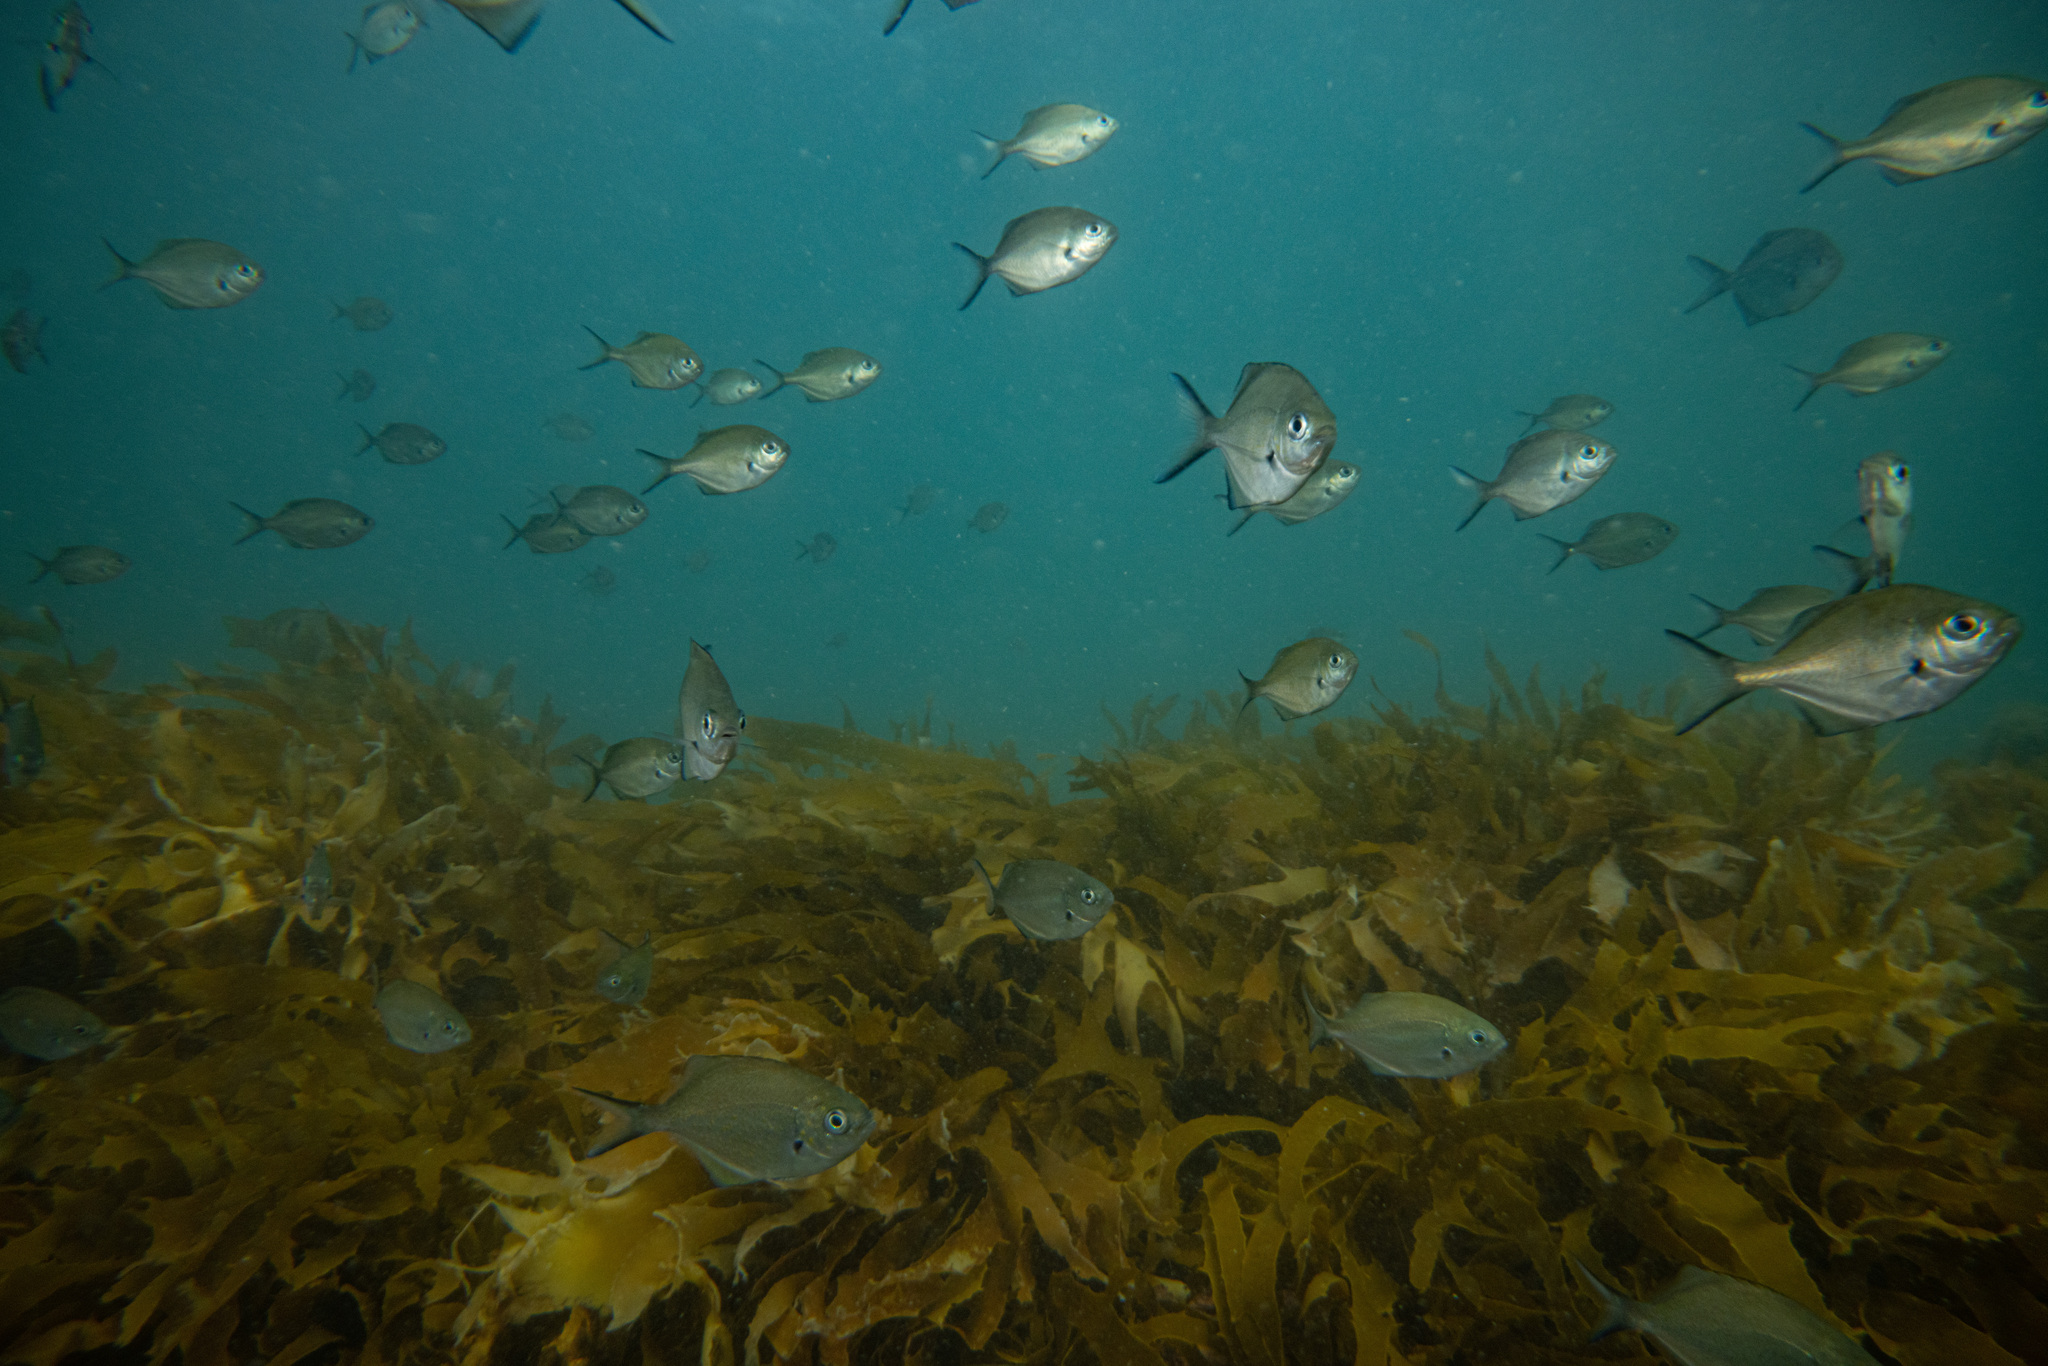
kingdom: Animalia
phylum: Chordata
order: Perciformes
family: Kyphosidae
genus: Scorpis
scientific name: Scorpis lineolata
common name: Sweep
